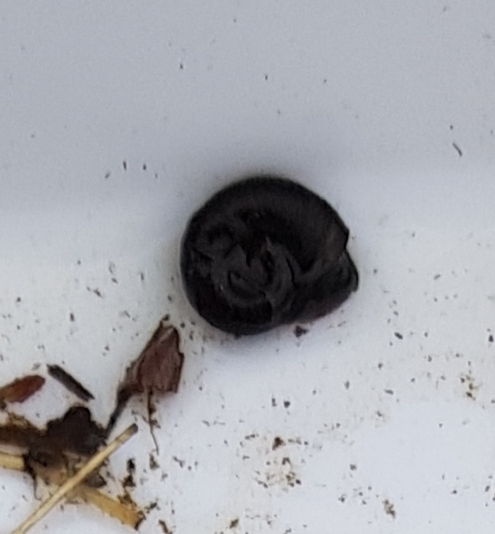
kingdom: Animalia
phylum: Mollusca
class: Gastropoda
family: Planorbidae
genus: Planorbarius
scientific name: Planorbarius corneus
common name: Great ramshorn
